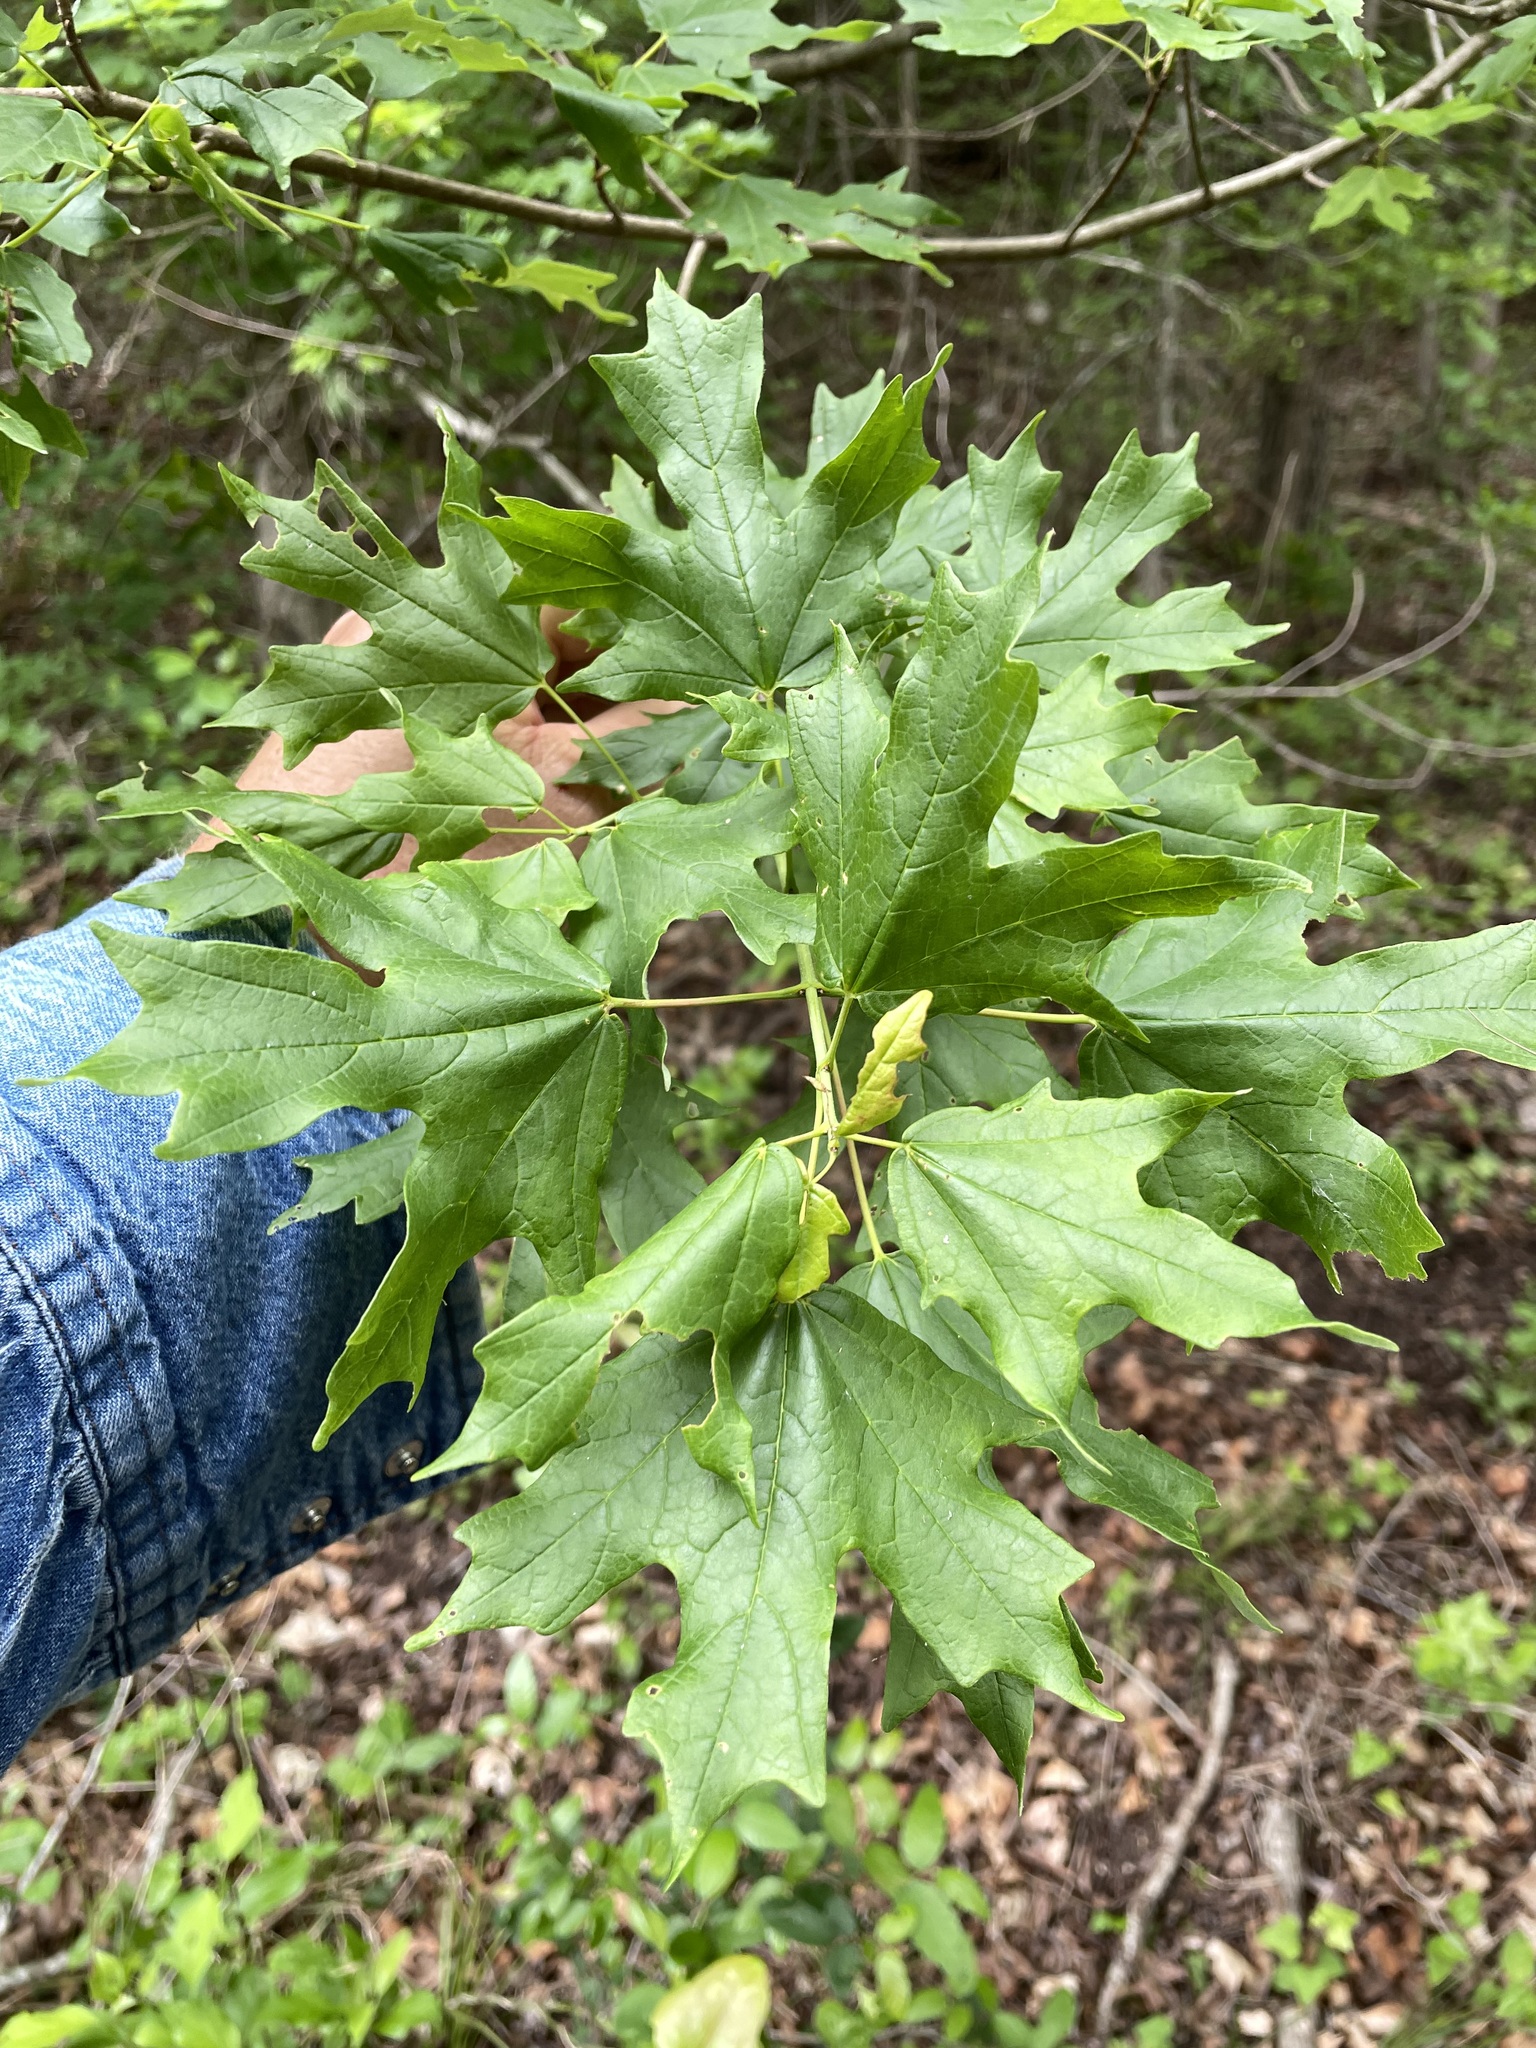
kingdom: Plantae
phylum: Tracheophyta
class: Magnoliopsida
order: Sapindales
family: Sapindaceae
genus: Acer
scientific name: Acer grandidentatum
